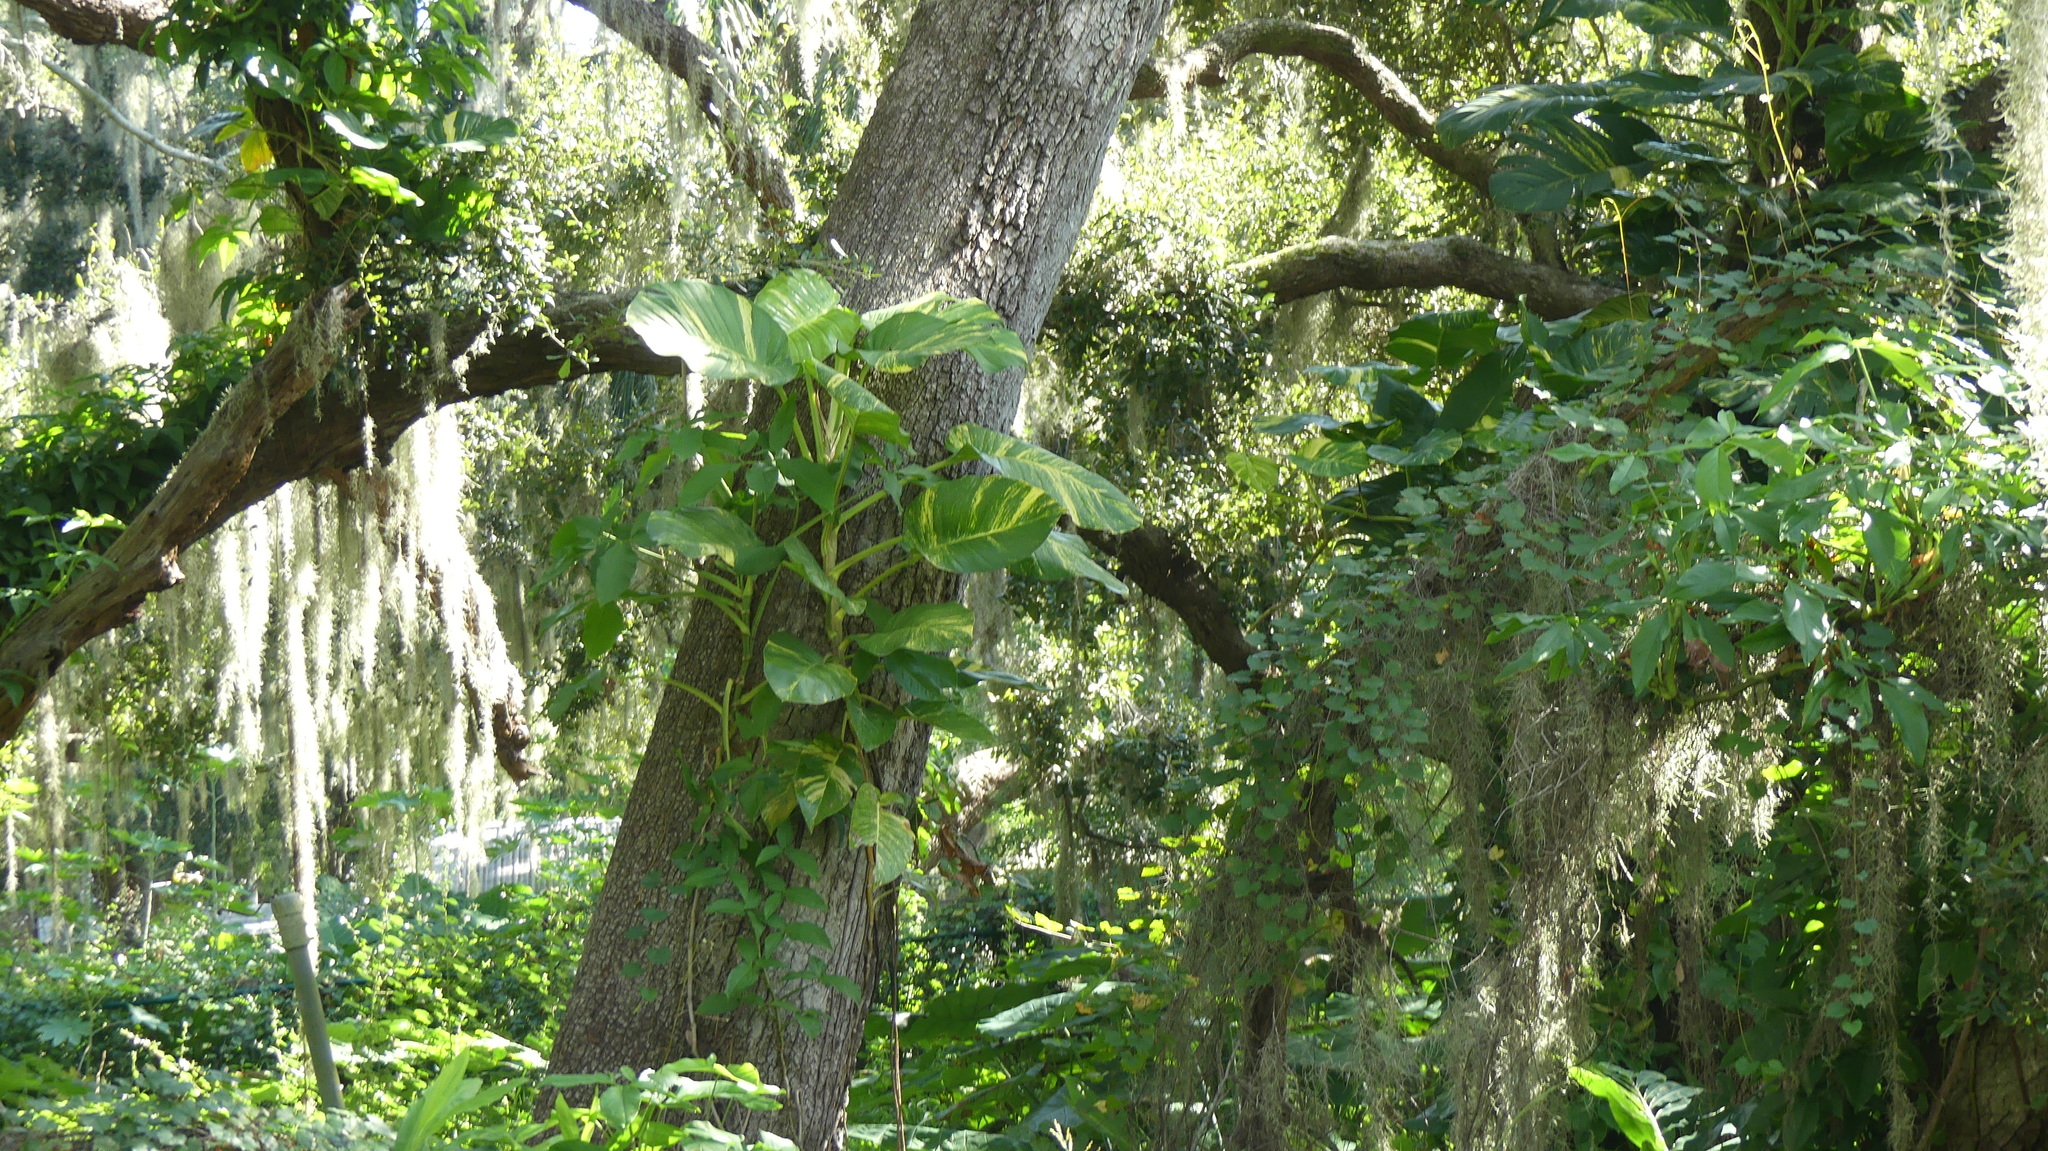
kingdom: Plantae
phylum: Tracheophyta
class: Liliopsida
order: Alismatales
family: Araceae
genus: Epipremnum
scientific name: Epipremnum aureum
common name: Golden hunter's-robe
